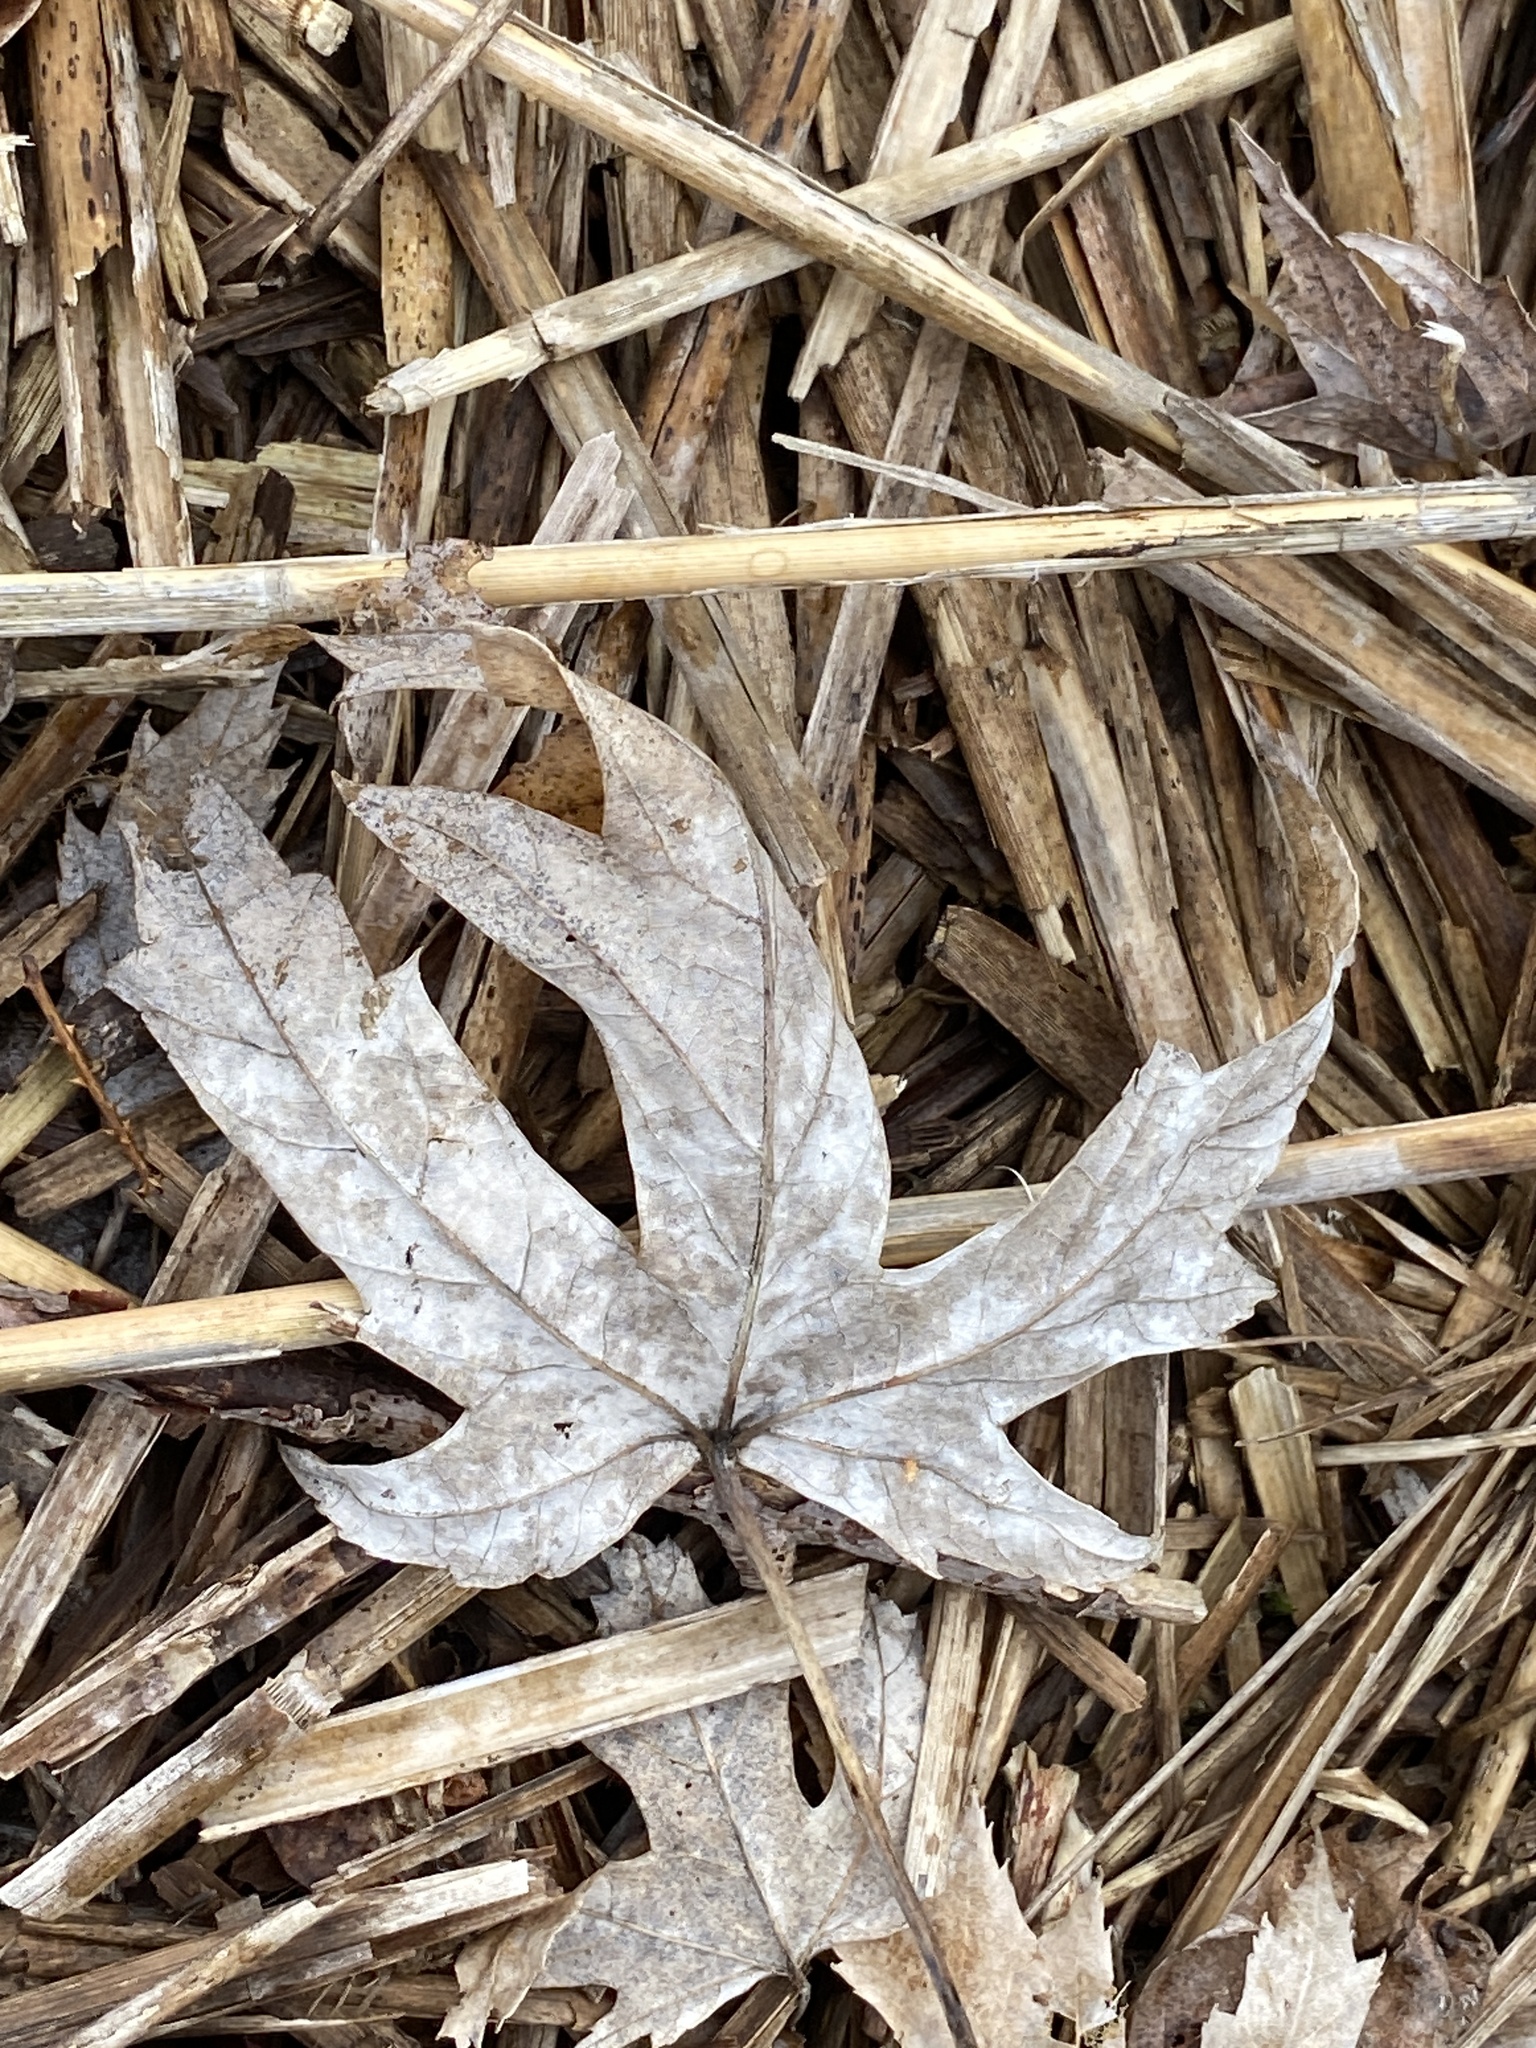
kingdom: Plantae
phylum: Tracheophyta
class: Magnoliopsida
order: Sapindales
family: Sapindaceae
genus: Acer
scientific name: Acer saccharinum
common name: Silver maple
